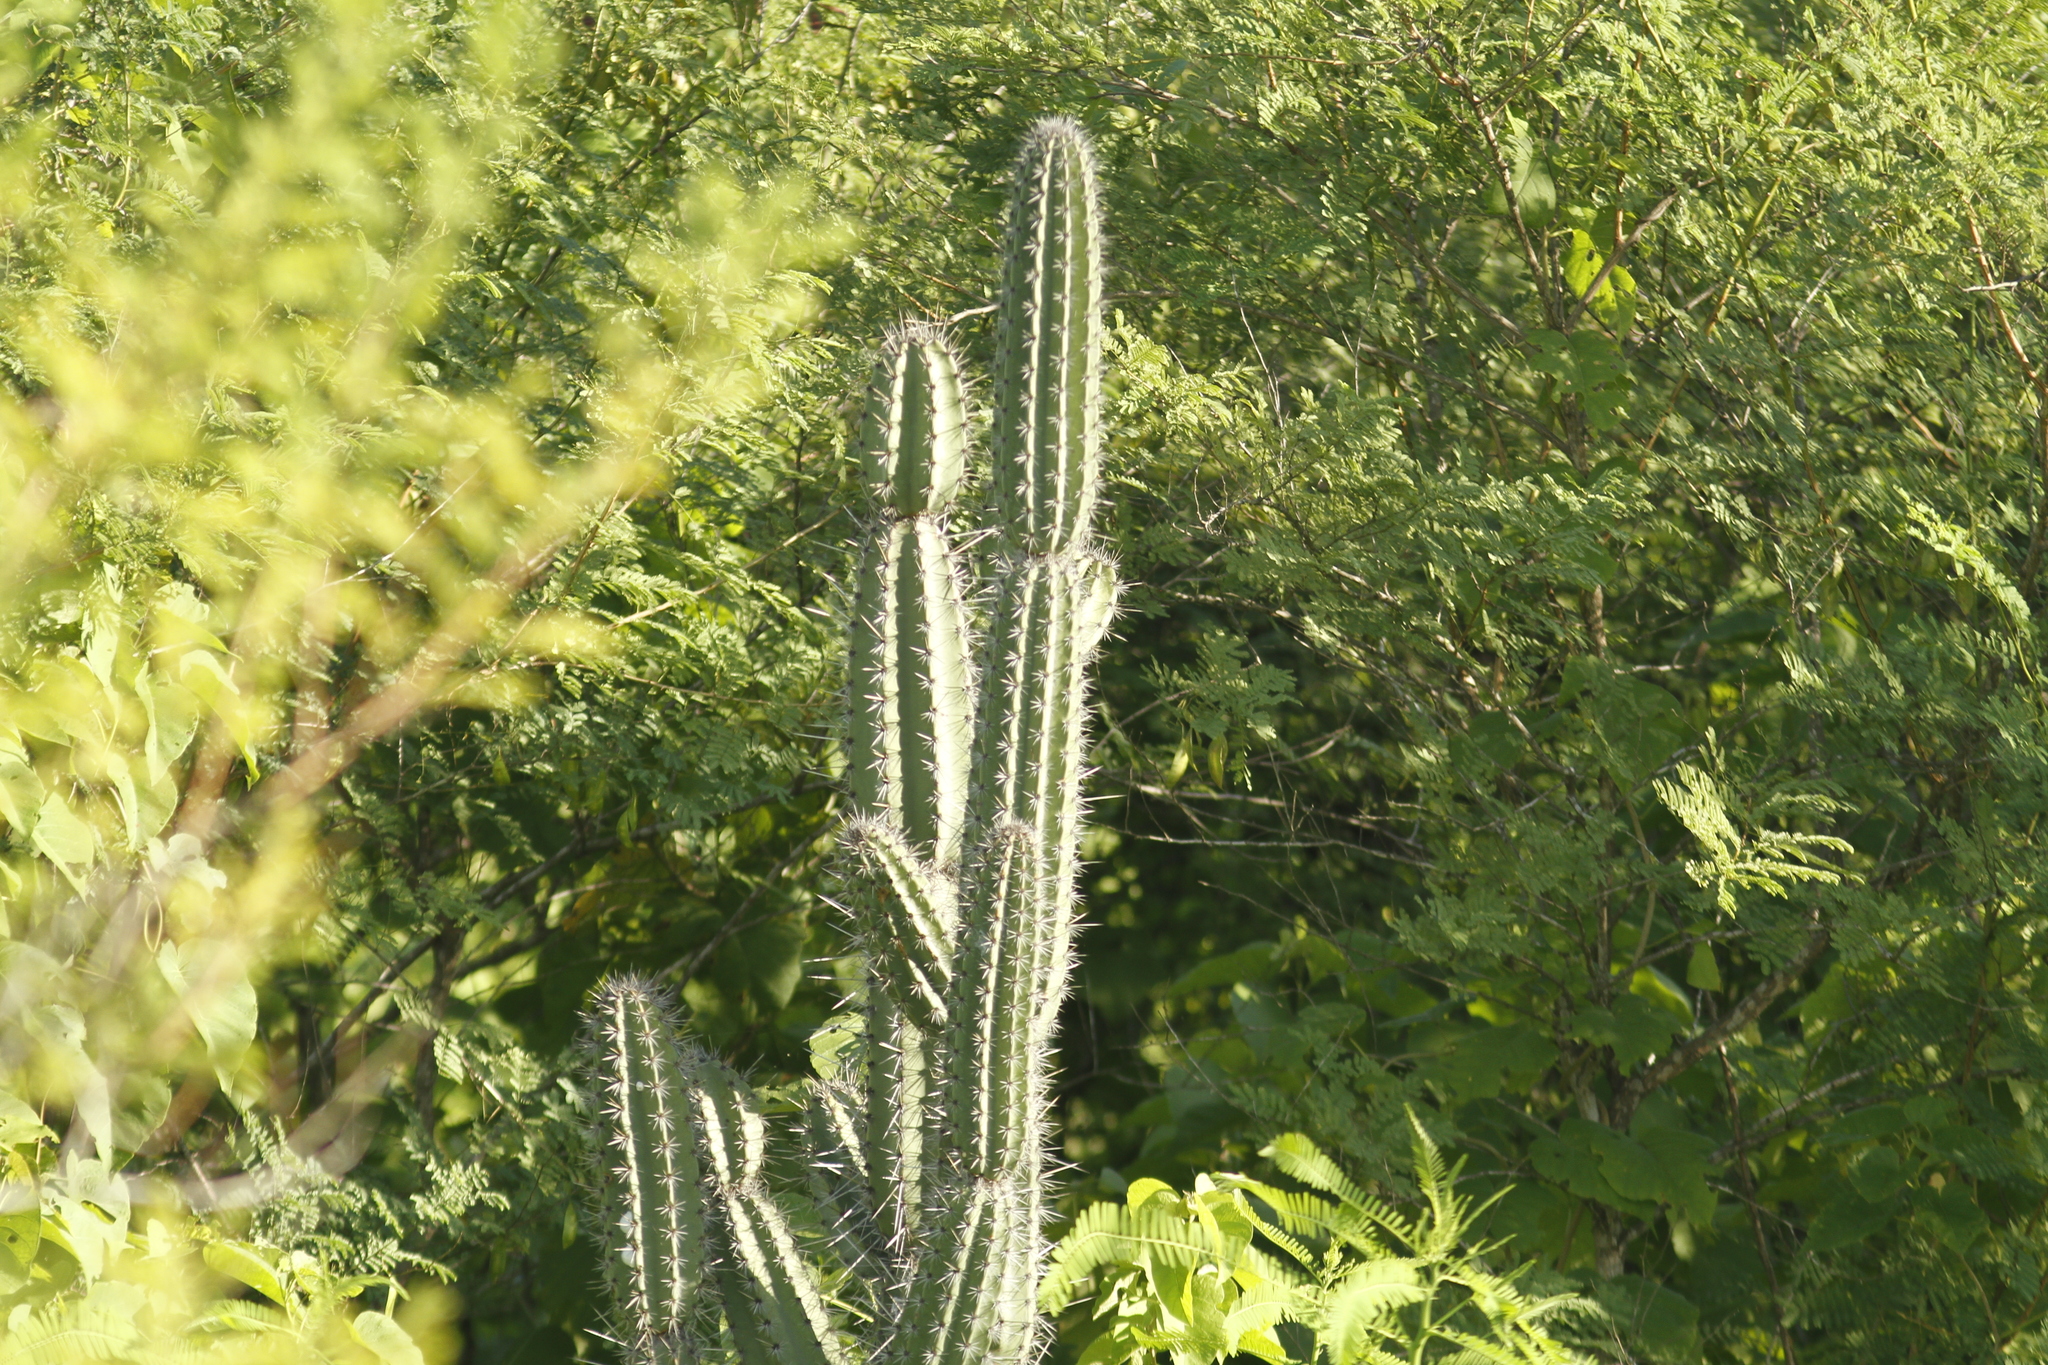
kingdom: Plantae
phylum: Tracheophyta
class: Magnoliopsida
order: Caryophyllales
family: Cactaceae
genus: Armatocereus
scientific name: Armatocereus cartwrightianus
